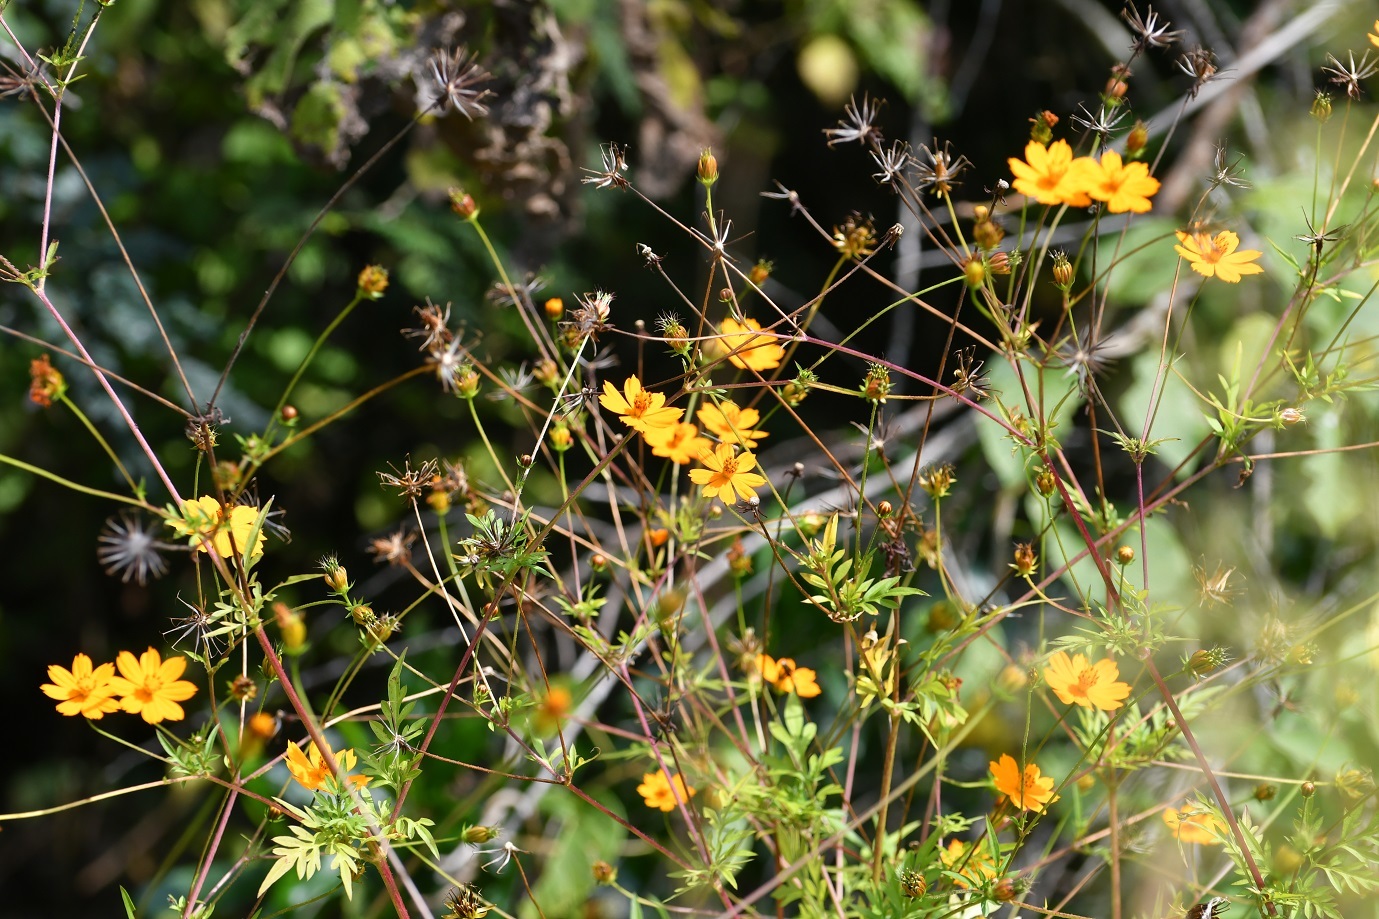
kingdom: Plantae
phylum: Tracheophyta
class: Magnoliopsida
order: Asterales
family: Asteraceae
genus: Cosmos
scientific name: Cosmos sulphureus
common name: Sulphur cosmos
